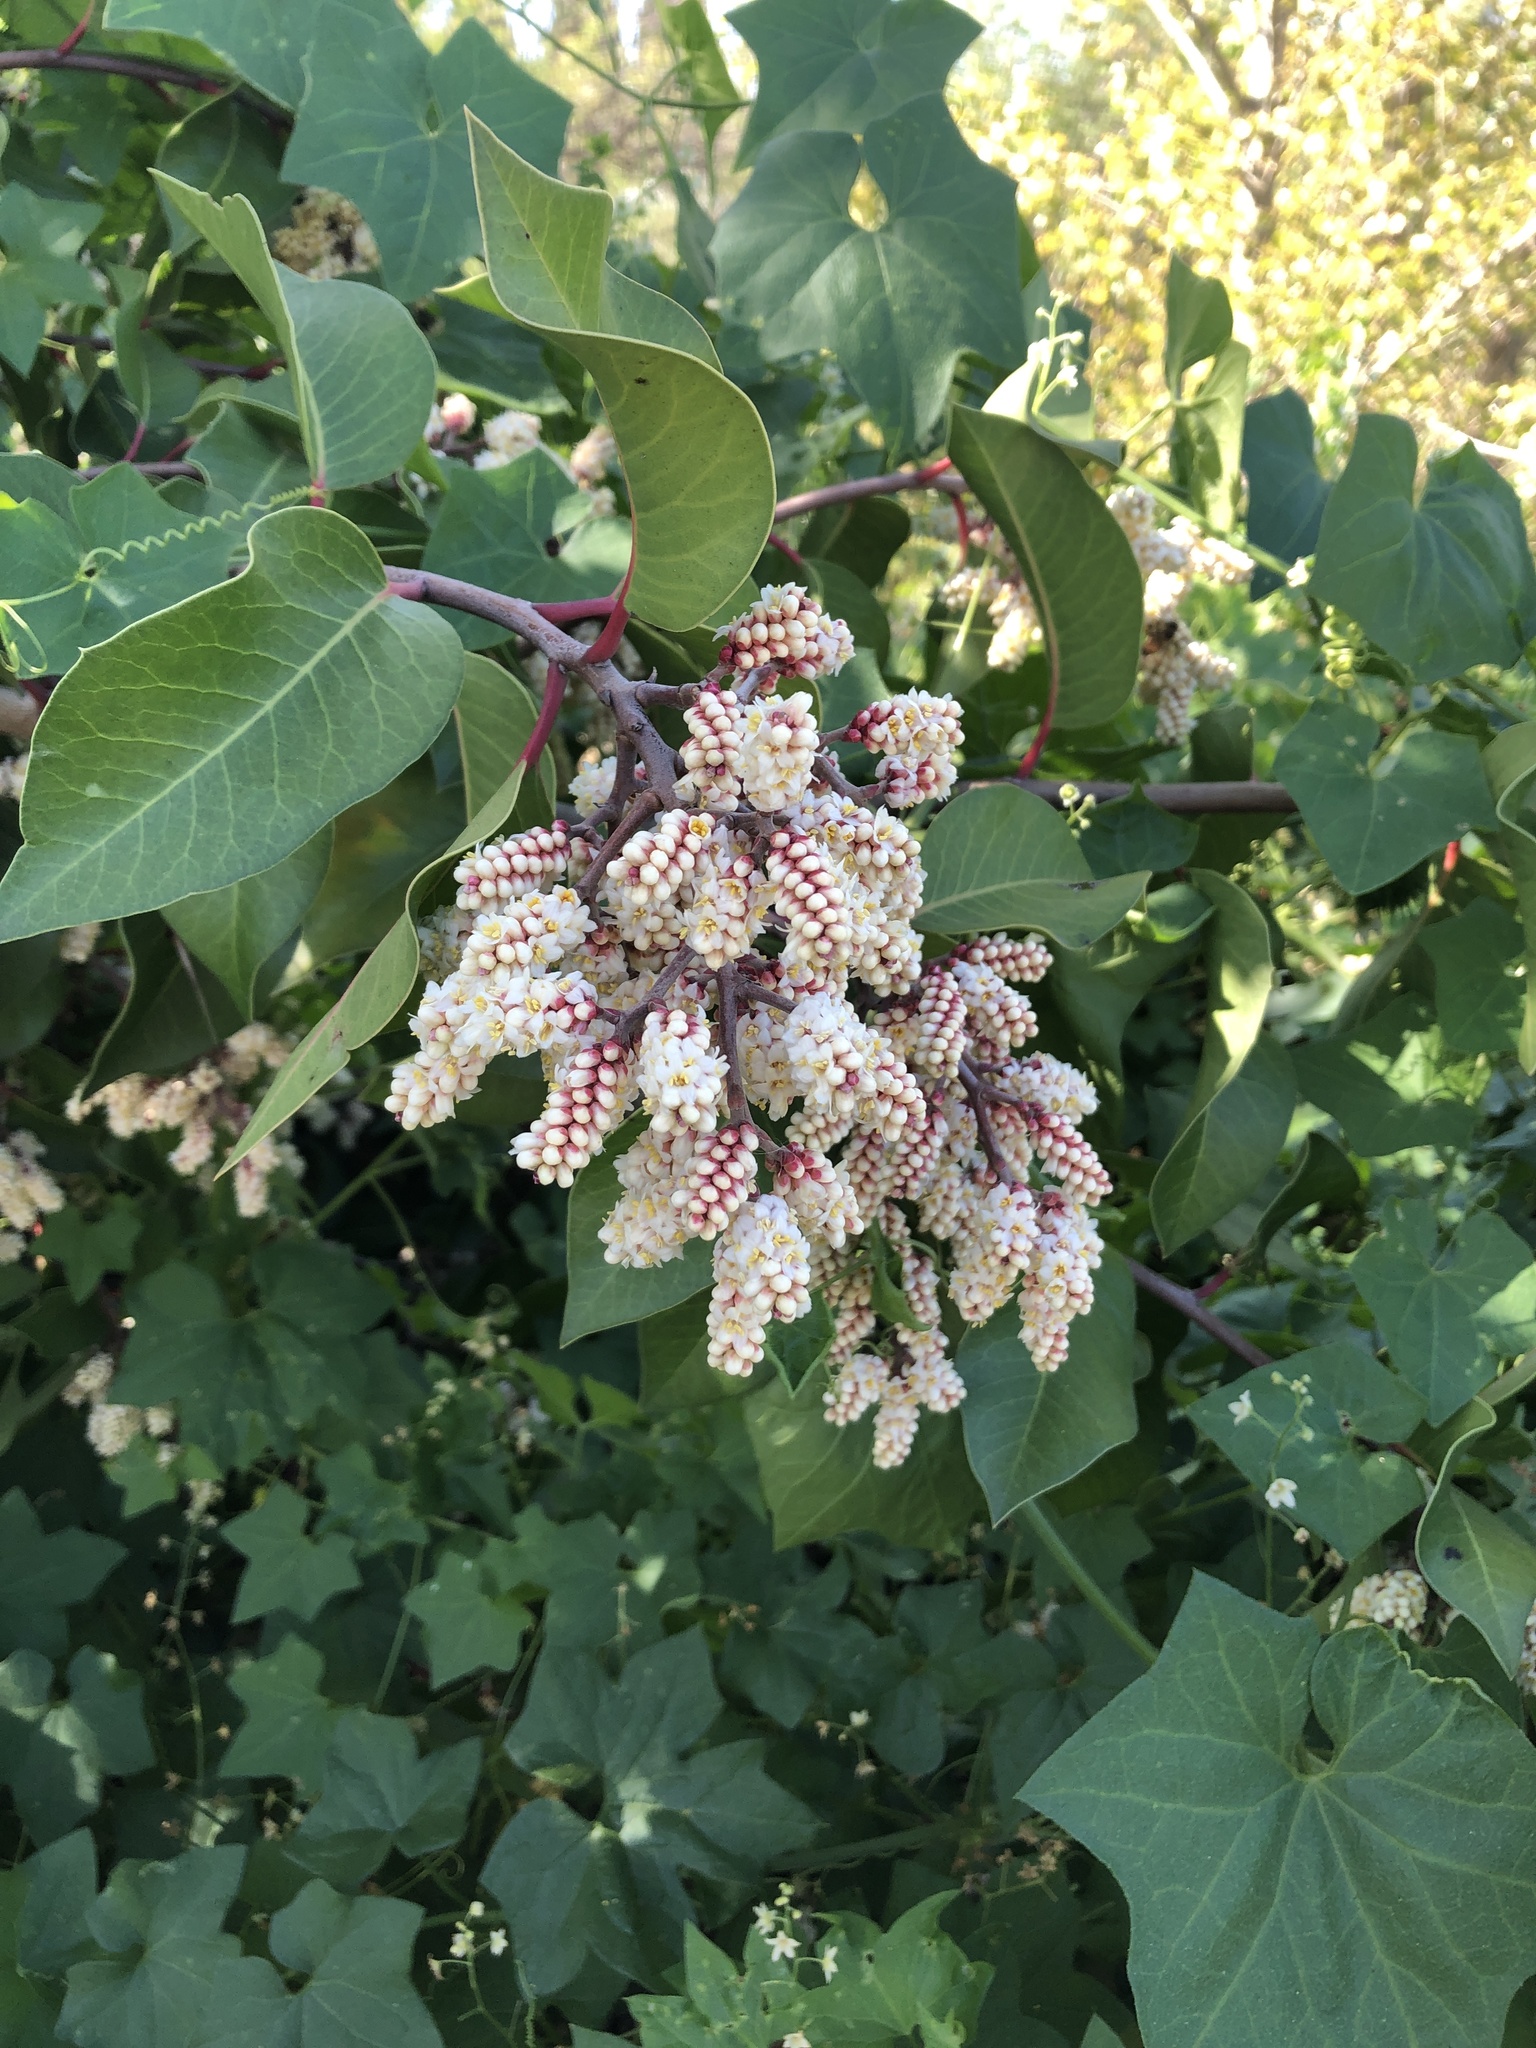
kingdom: Plantae
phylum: Tracheophyta
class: Magnoliopsida
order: Sapindales
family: Anacardiaceae
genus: Rhus
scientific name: Rhus ovata
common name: Sugar sumac
